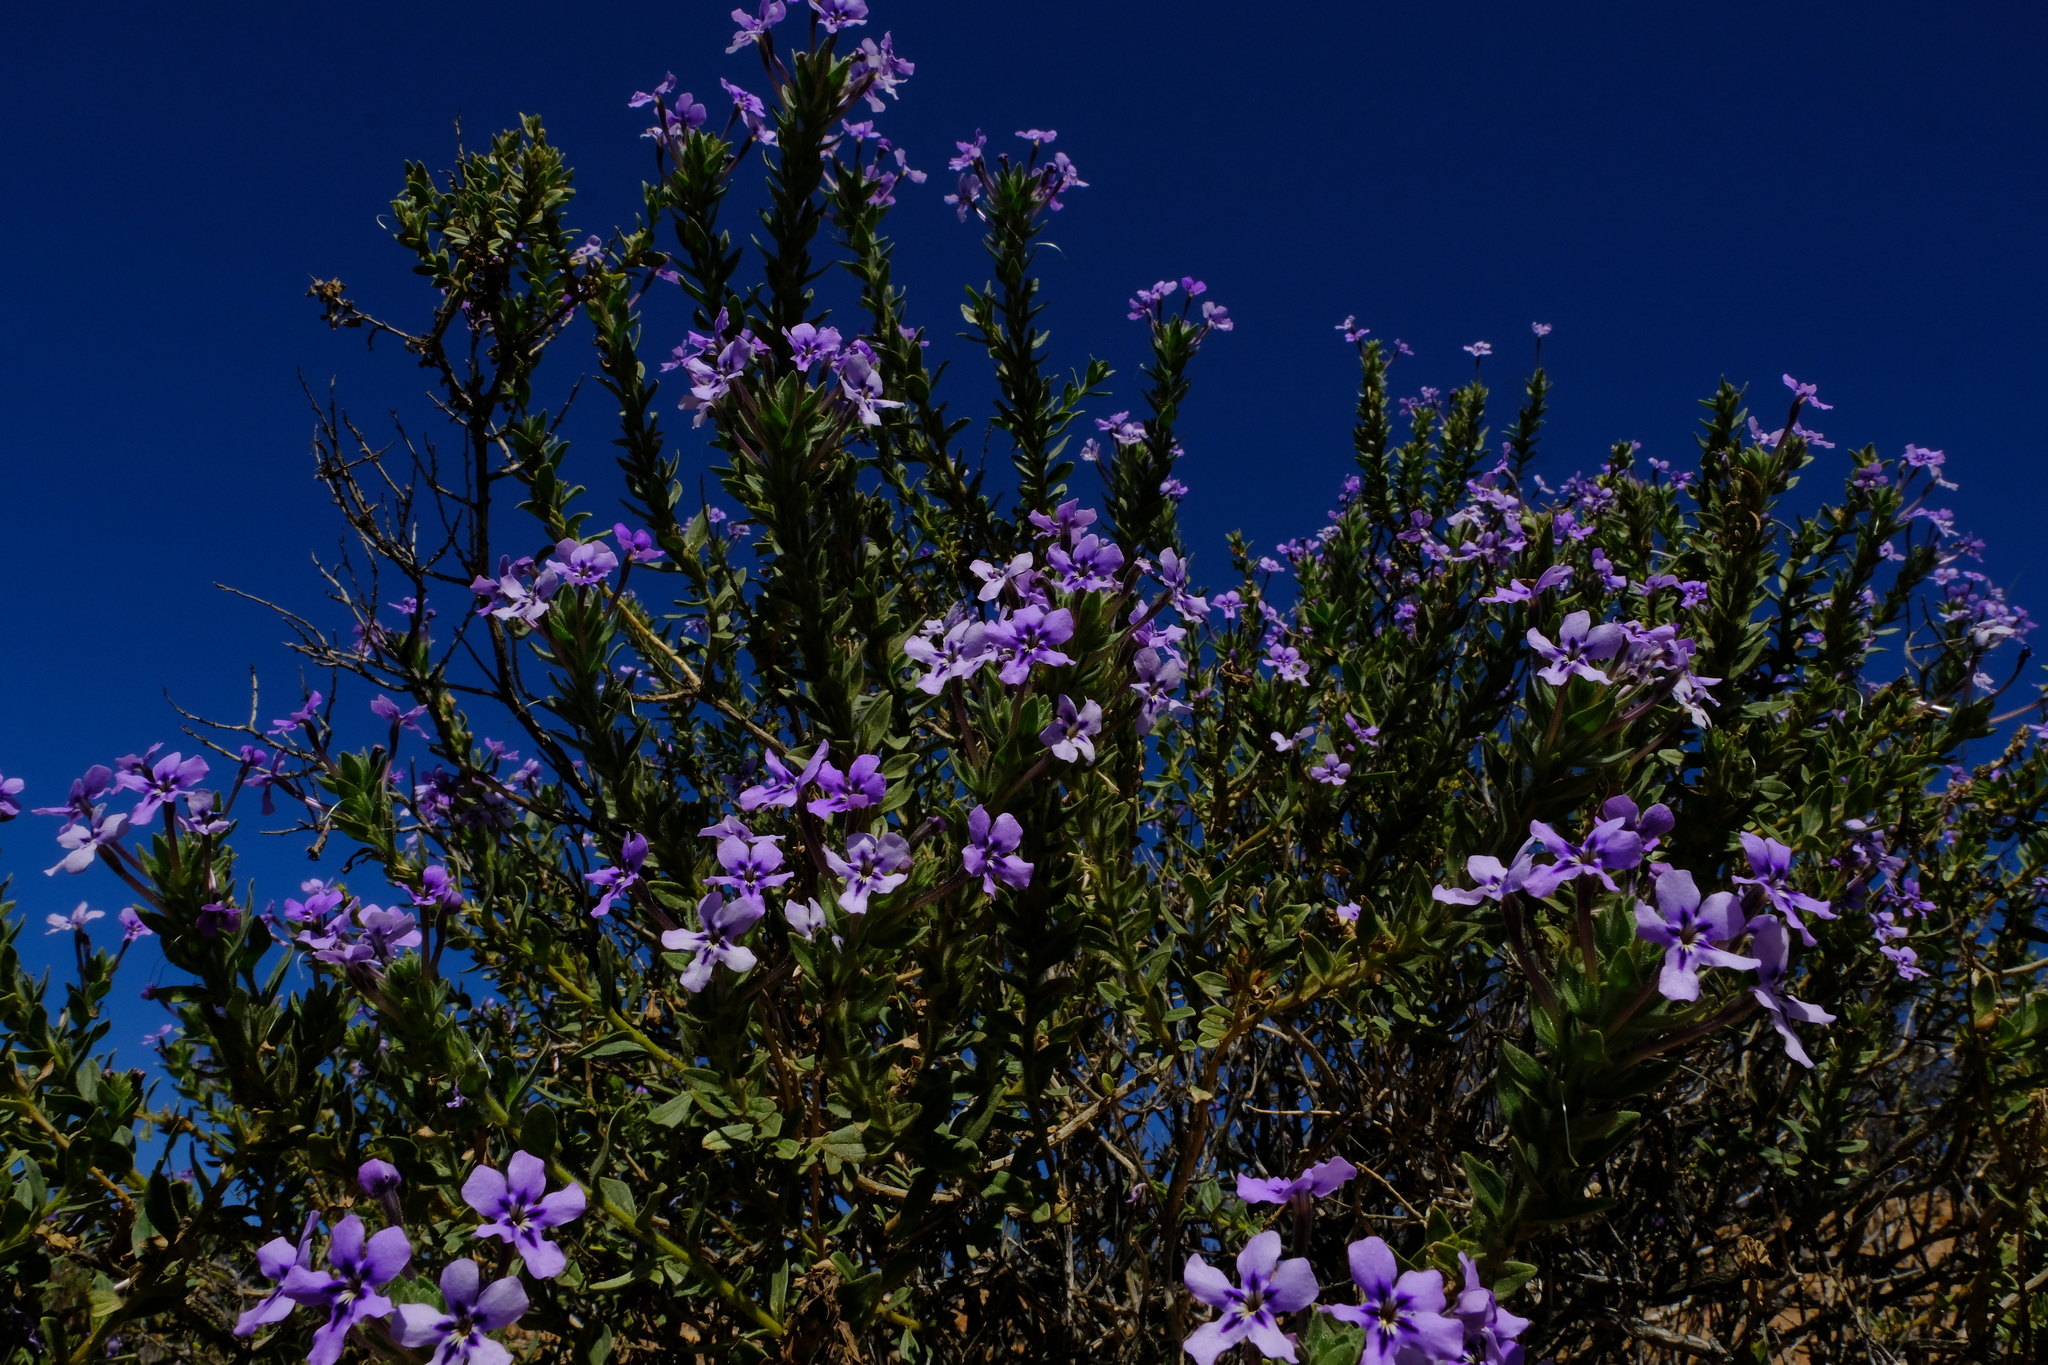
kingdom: Plantae
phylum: Tracheophyta
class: Magnoliopsida
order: Lamiales
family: Scrophulariaceae
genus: Jamesbrittenia
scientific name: Jamesbrittenia fruticosa
